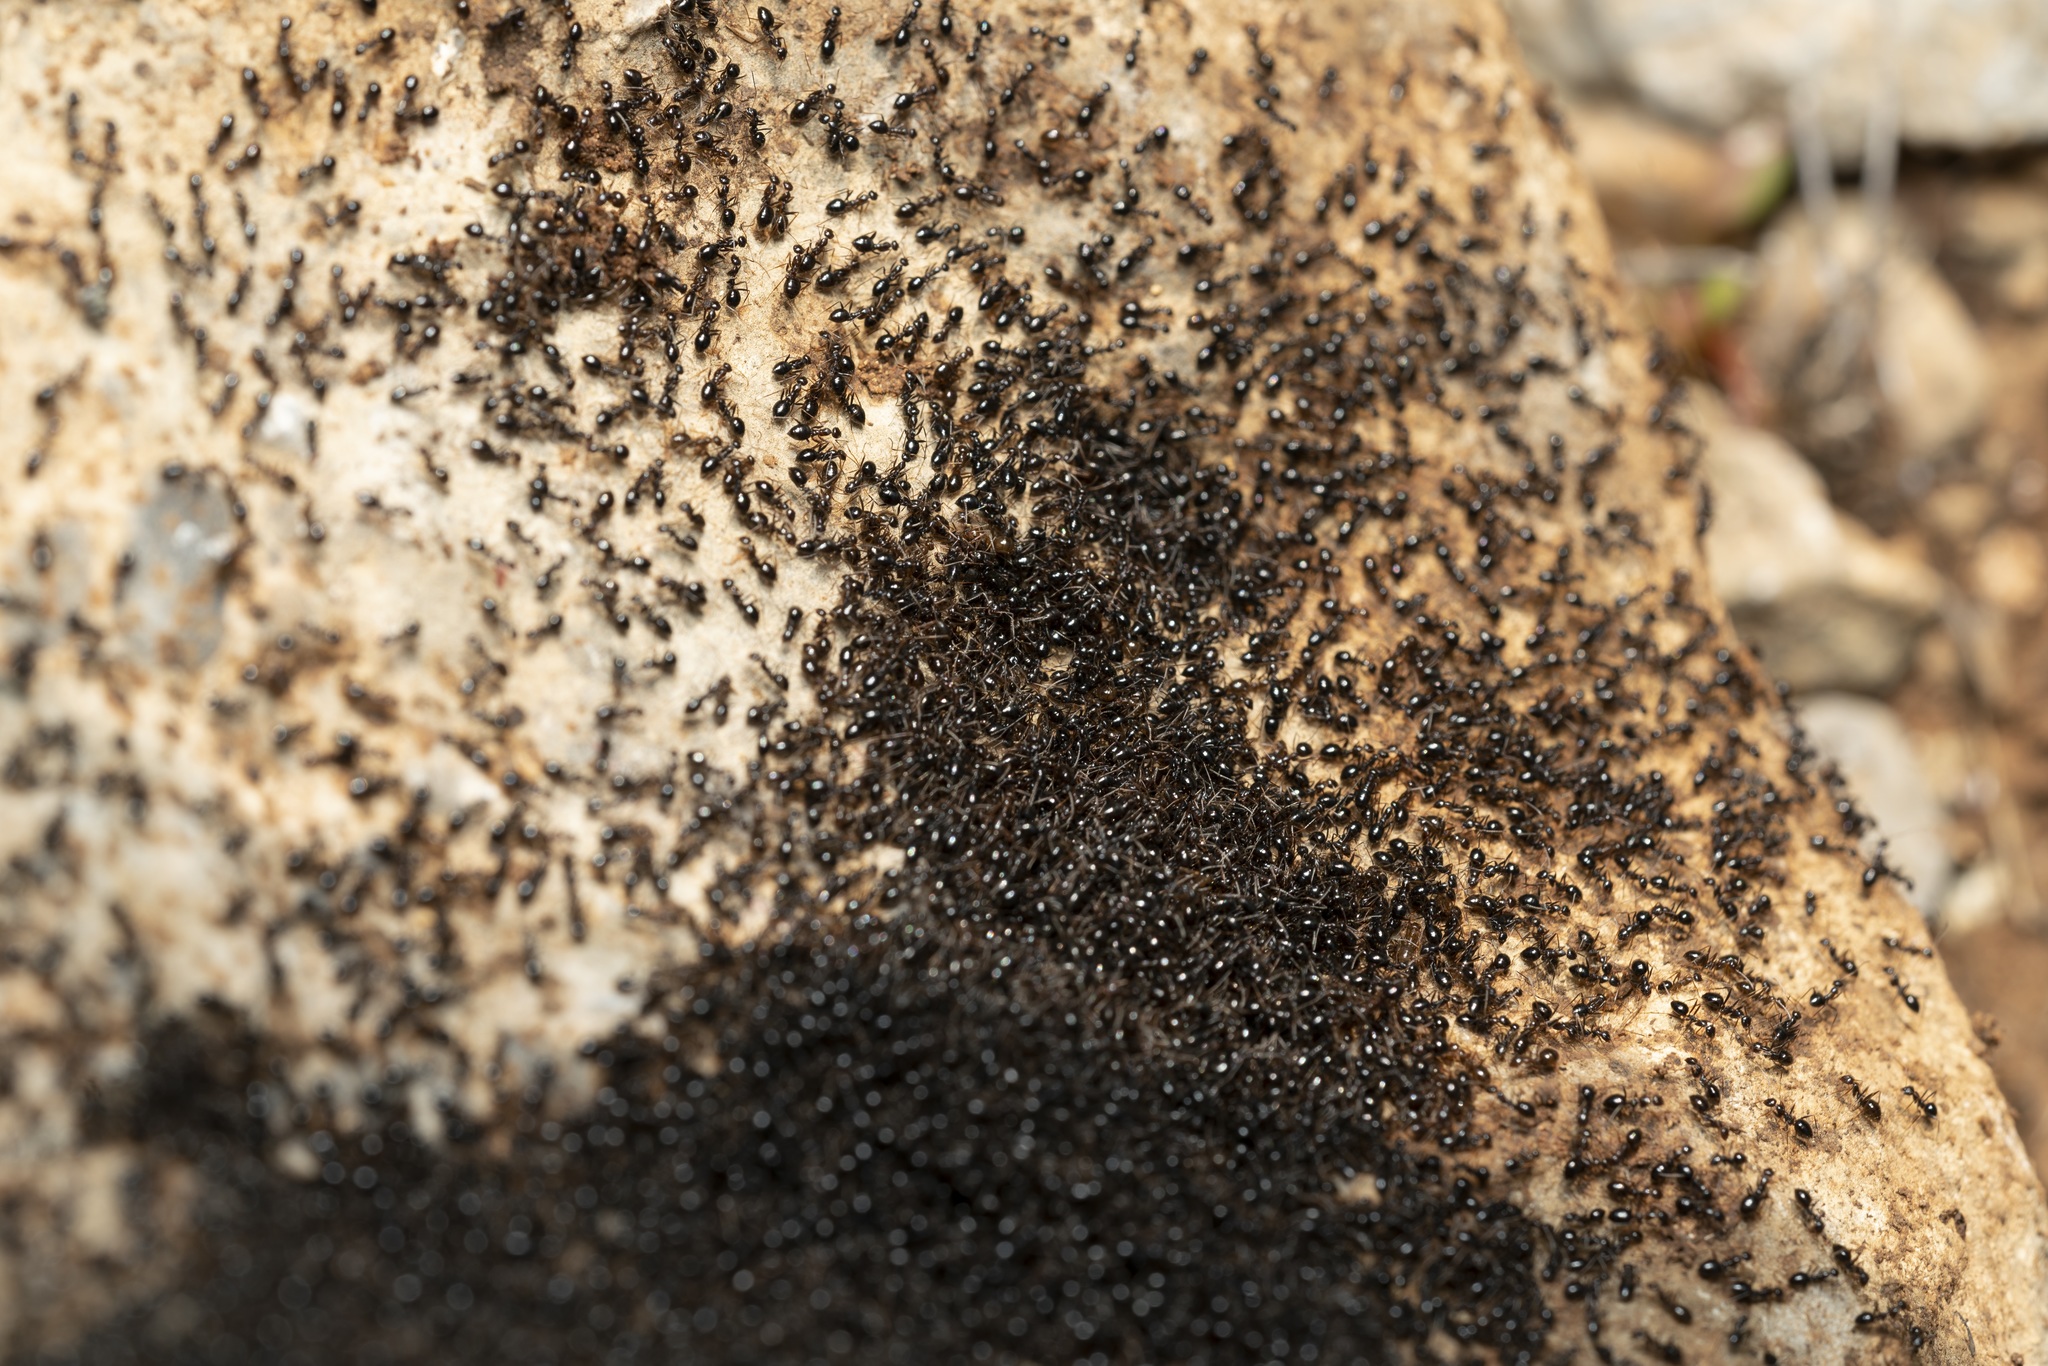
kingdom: Animalia
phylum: Arthropoda
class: Insecta
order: Hymenoptera
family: Formicidae
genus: Lepisiota
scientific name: Lepisiota melas
